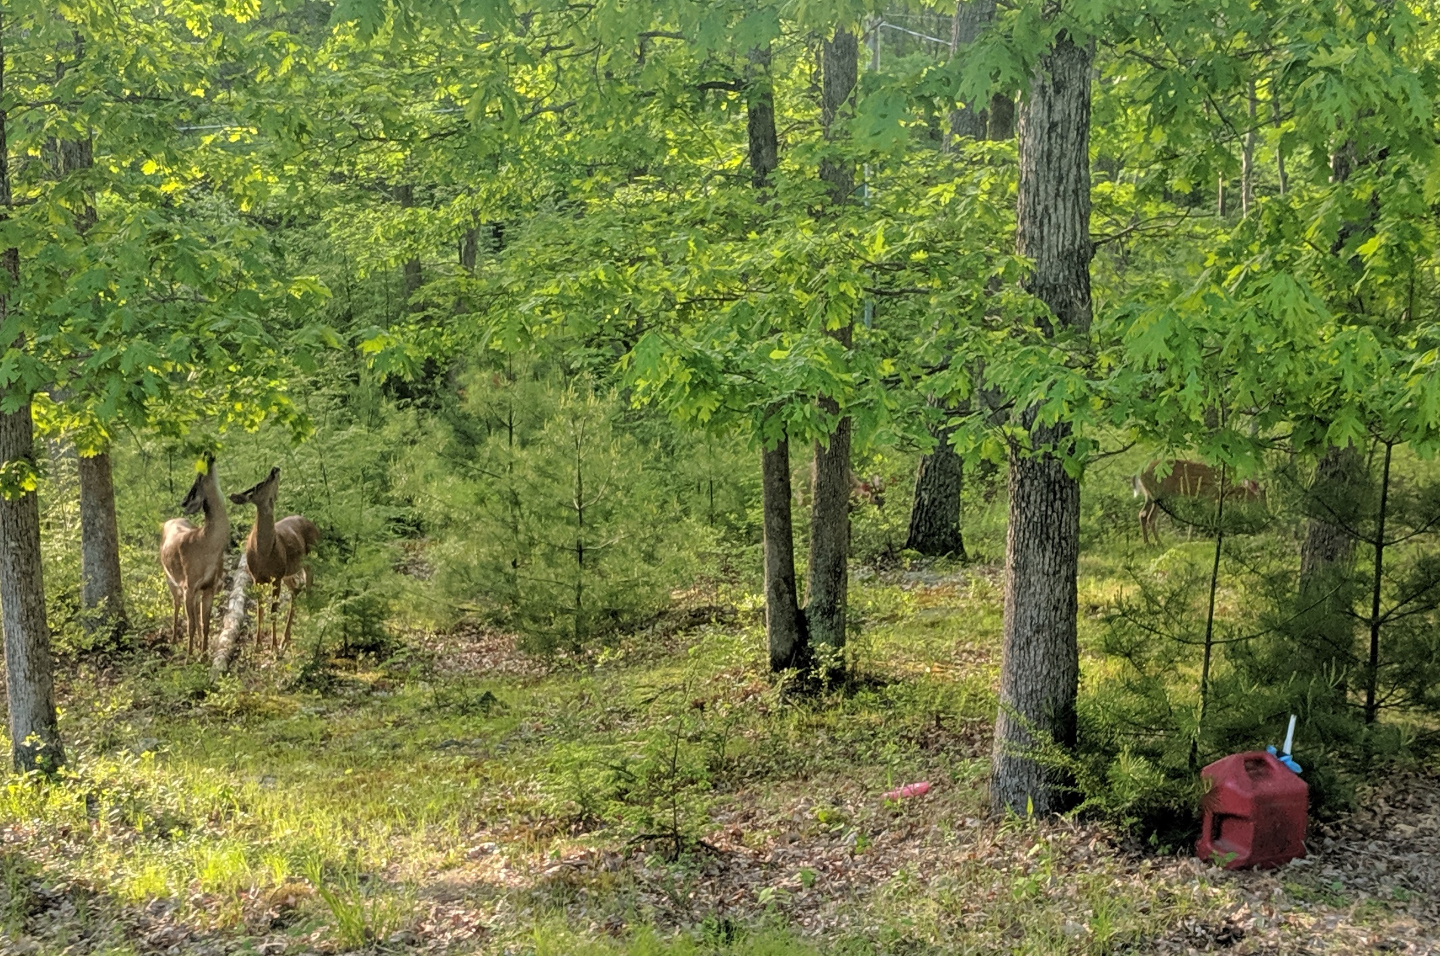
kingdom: Animalia
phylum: Chordata
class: Mammalia
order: Artiodactyla
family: Cervidae
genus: Odocoileus
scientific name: Odocoileus virginianus
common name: White-tailed deer
